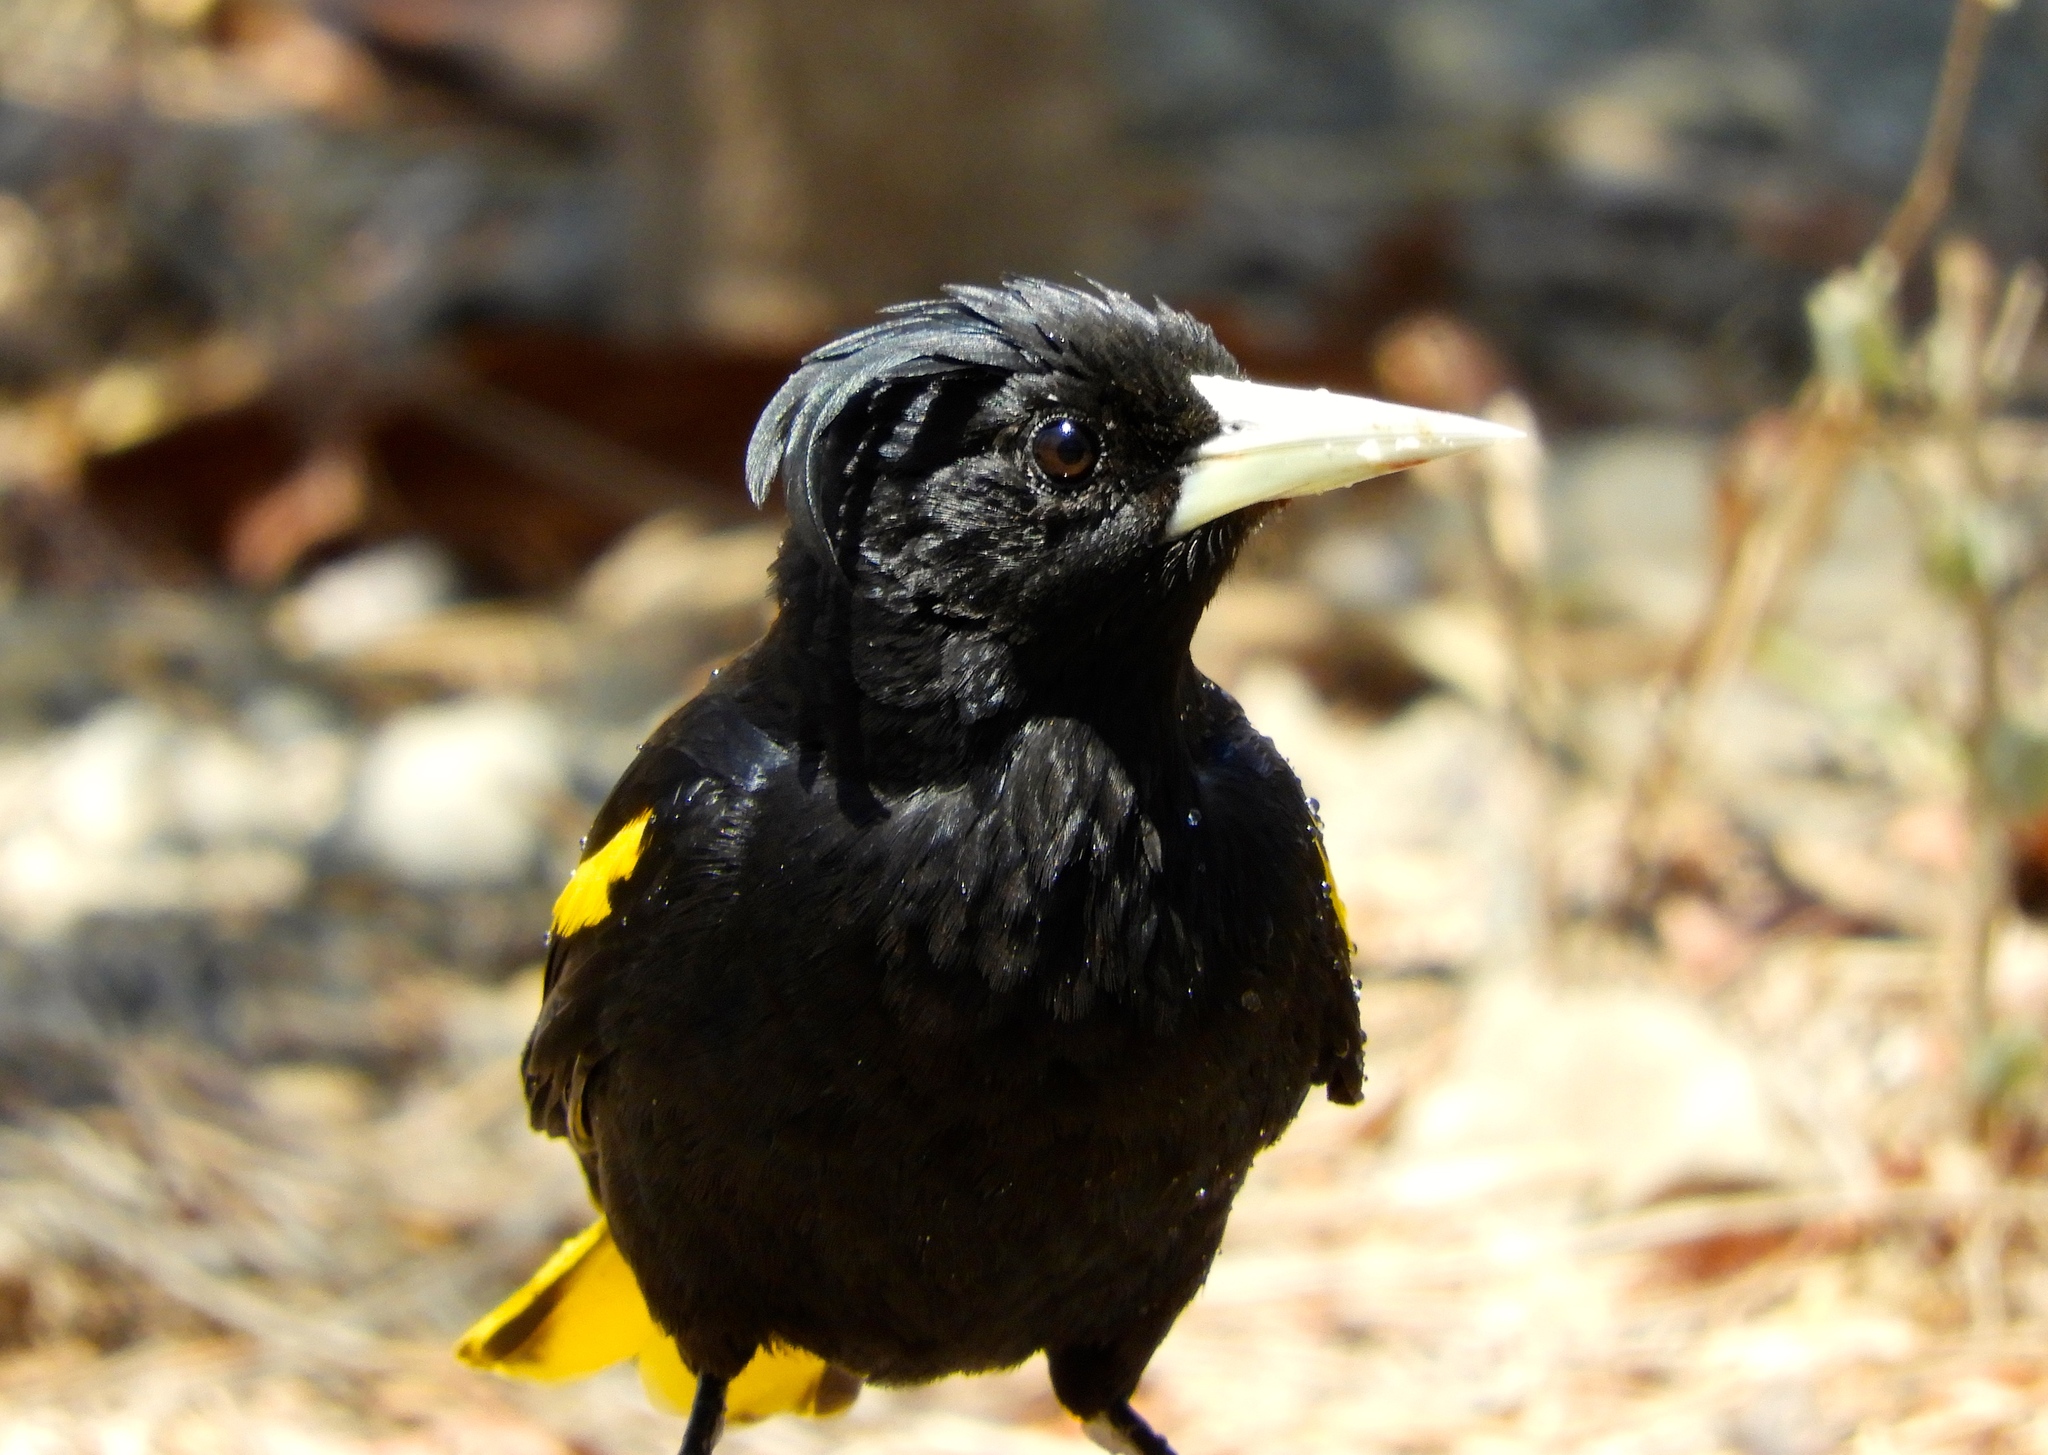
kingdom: Animalia
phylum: Chordata
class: Aves
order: Passeriformes
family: Icteridae
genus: Cacicus
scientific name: Cacicus melanicterus
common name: Yellow-winged cacique
